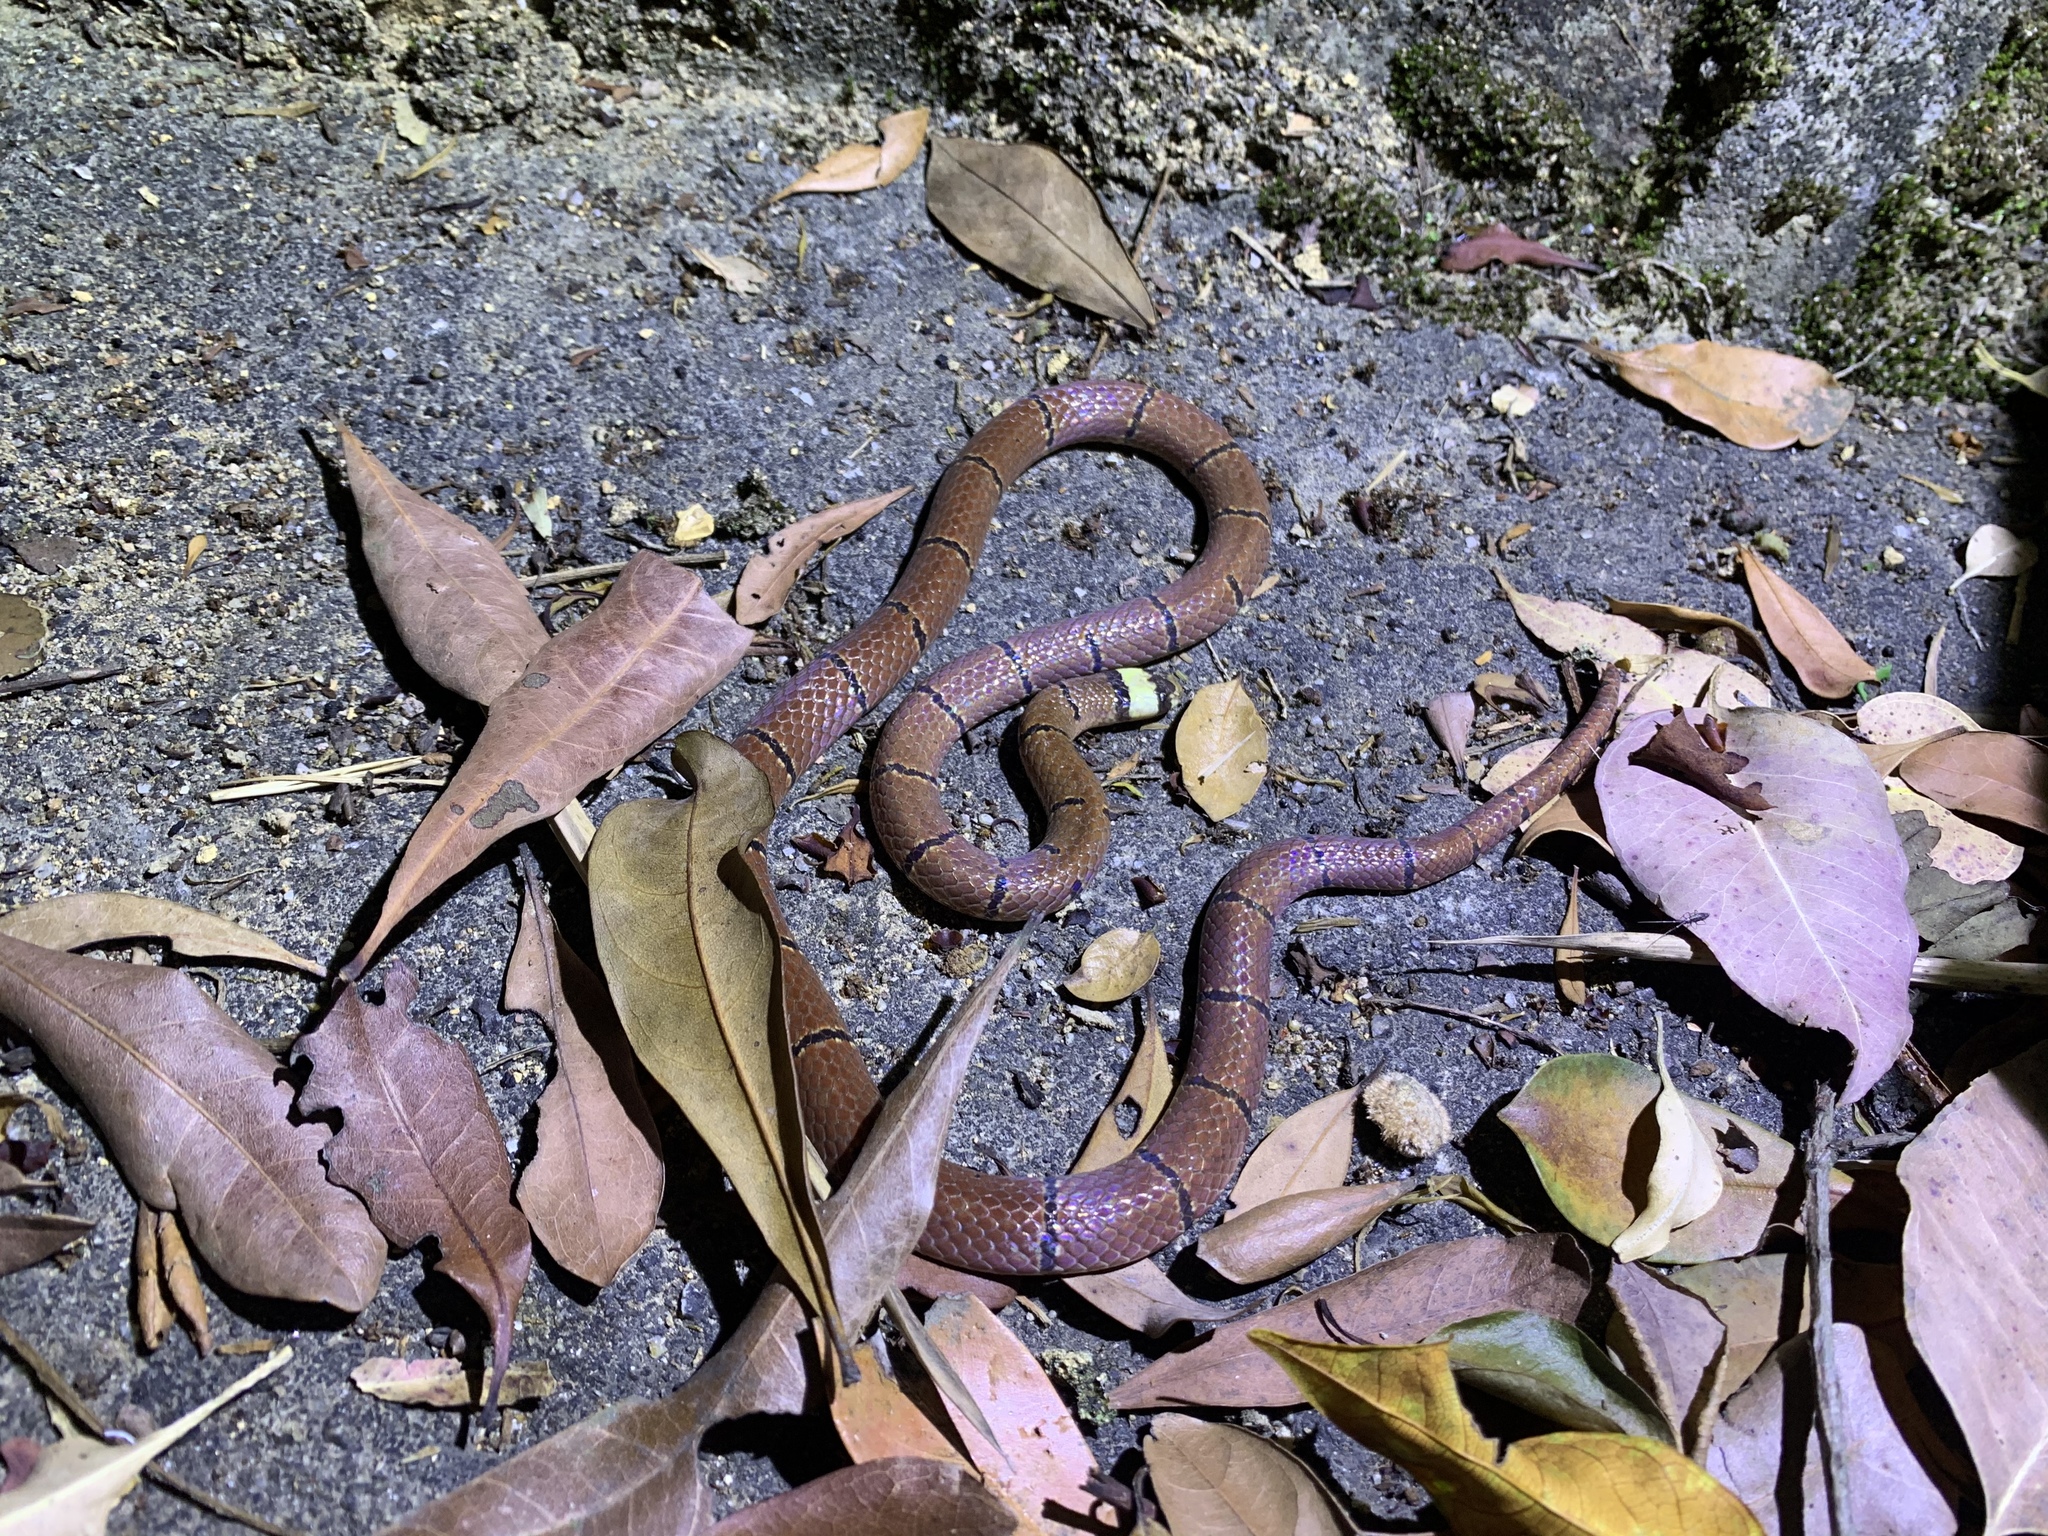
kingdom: Animalia
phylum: Chordata
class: Squamata
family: Elapidae
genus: Sinomicrurus
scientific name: Sinomicrurus macclellandi
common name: Maclelland's coral snake
